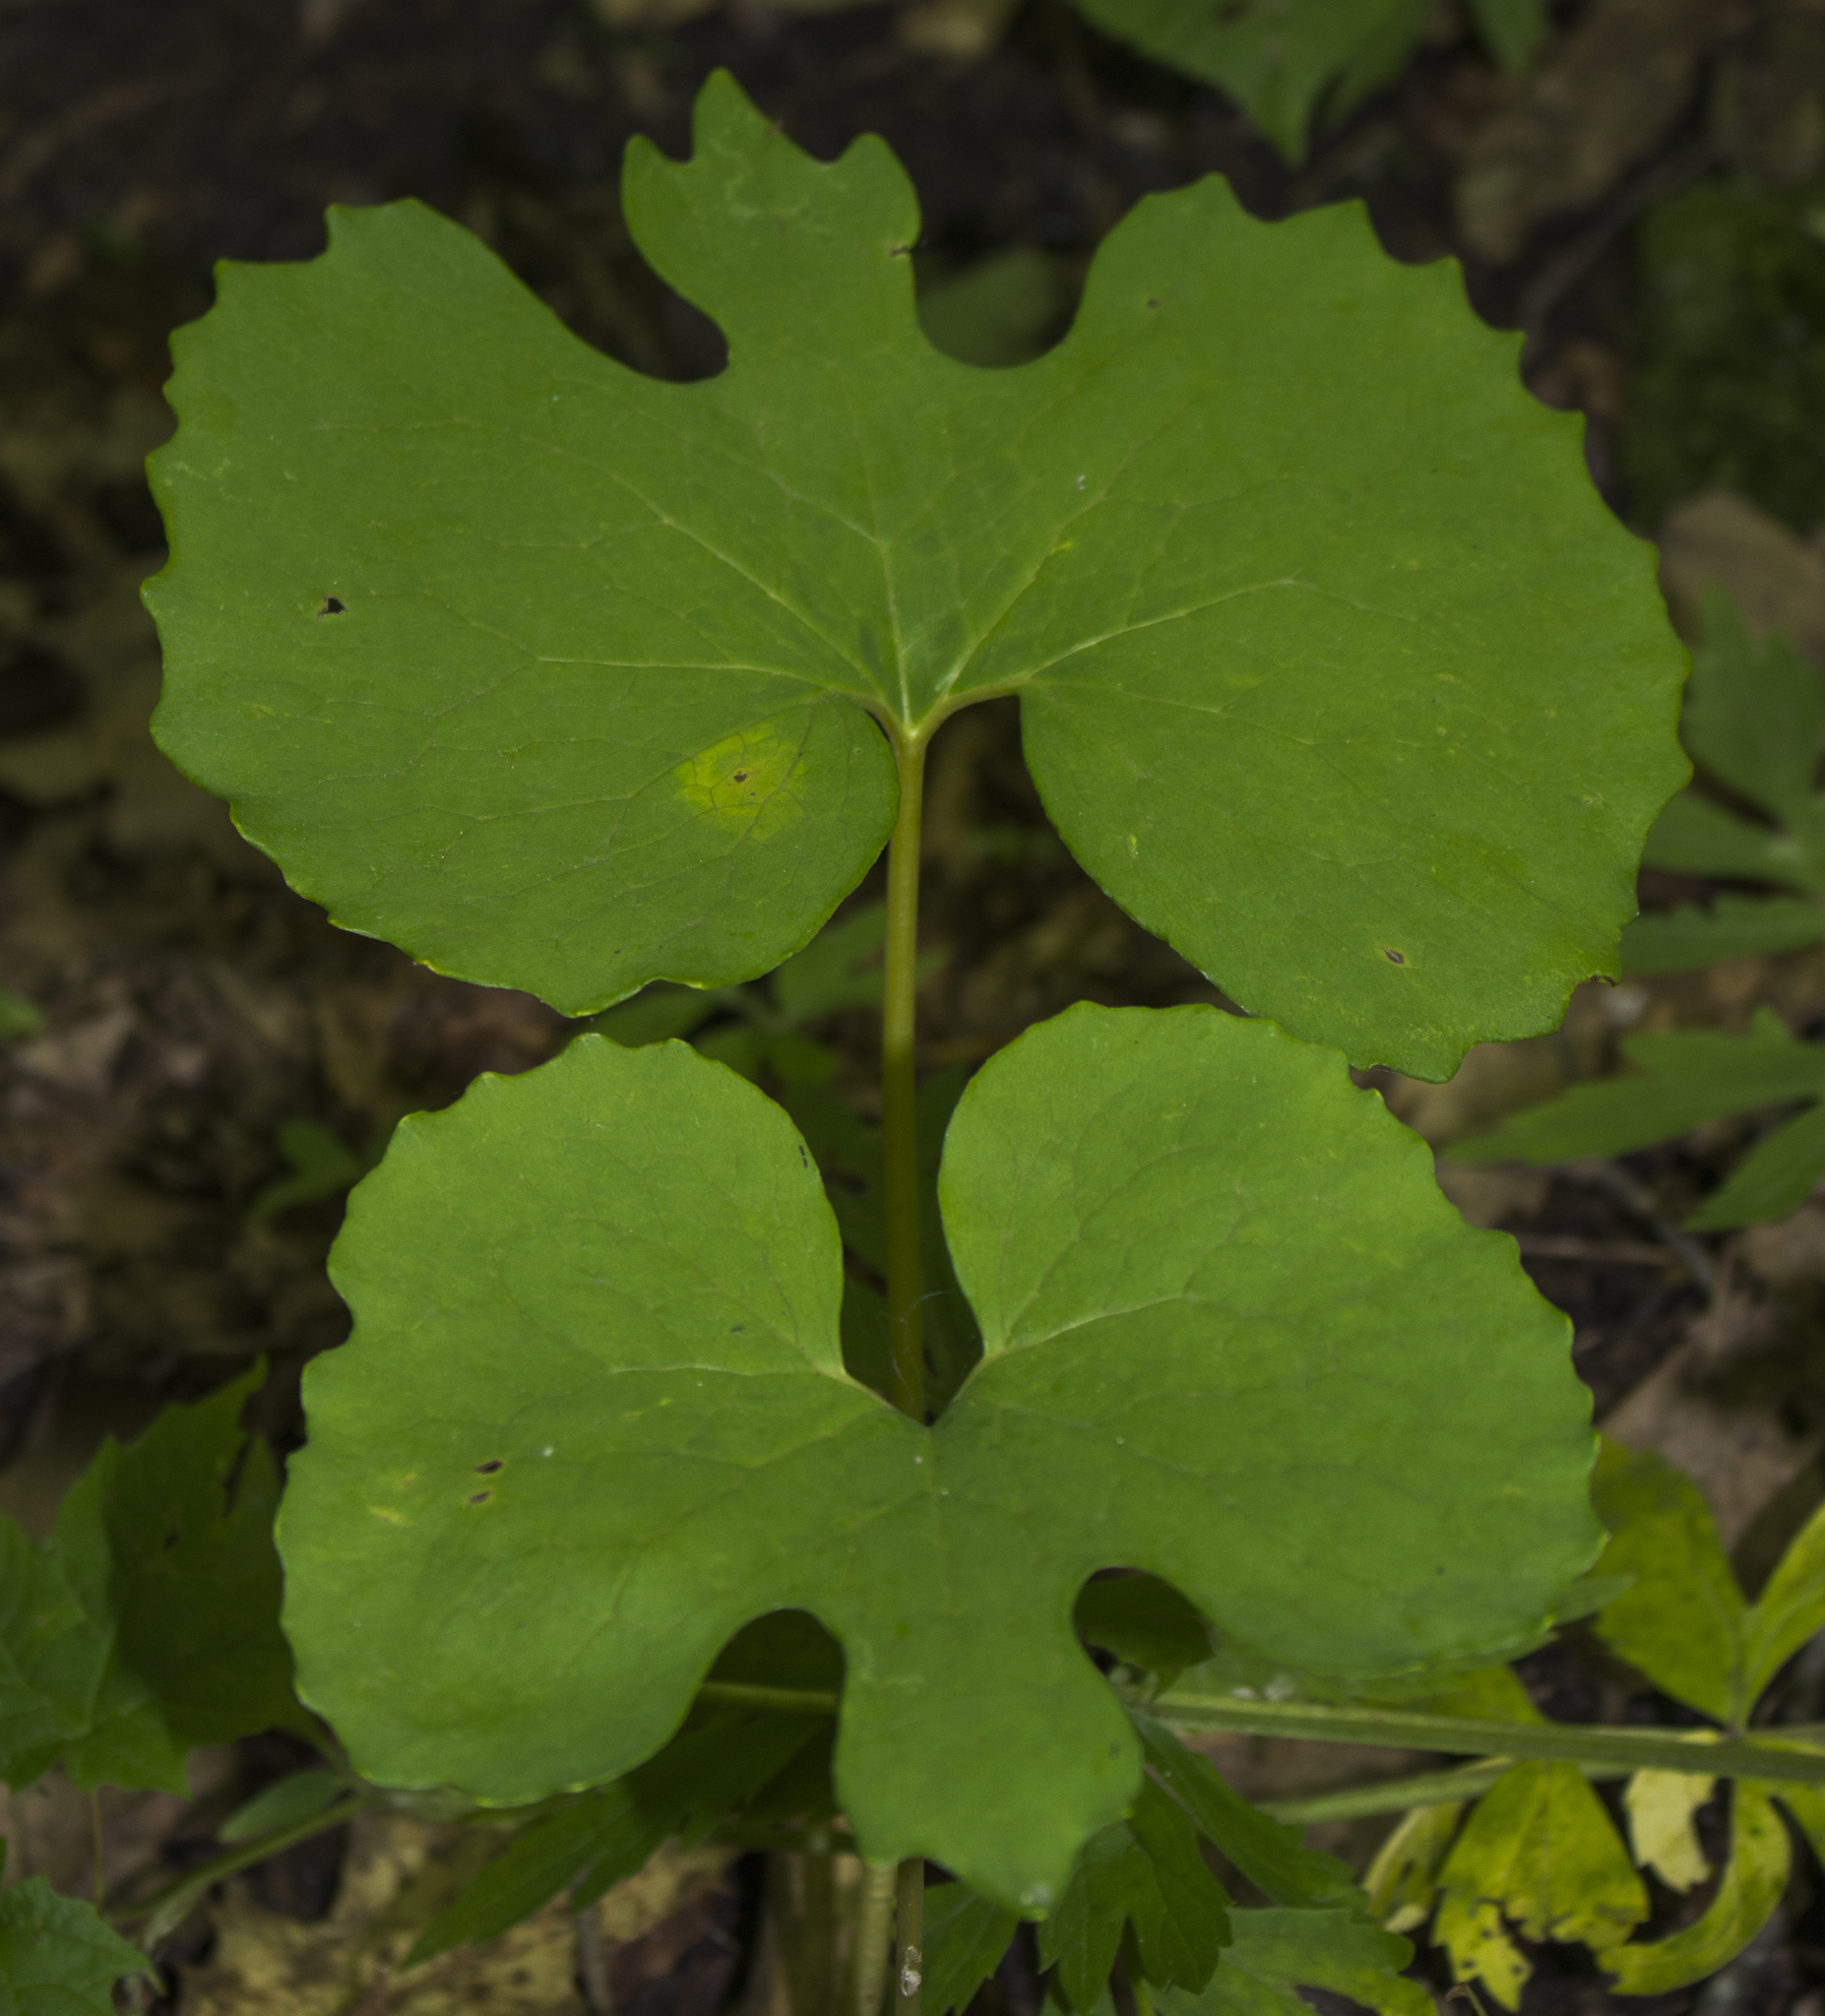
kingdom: Plantae
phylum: Tracheophyta
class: Magnoliopsida
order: Ranunculales
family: Papaveraceae
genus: Sanguinaria
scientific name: Sanguinaria canadensis
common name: Bloodroot
